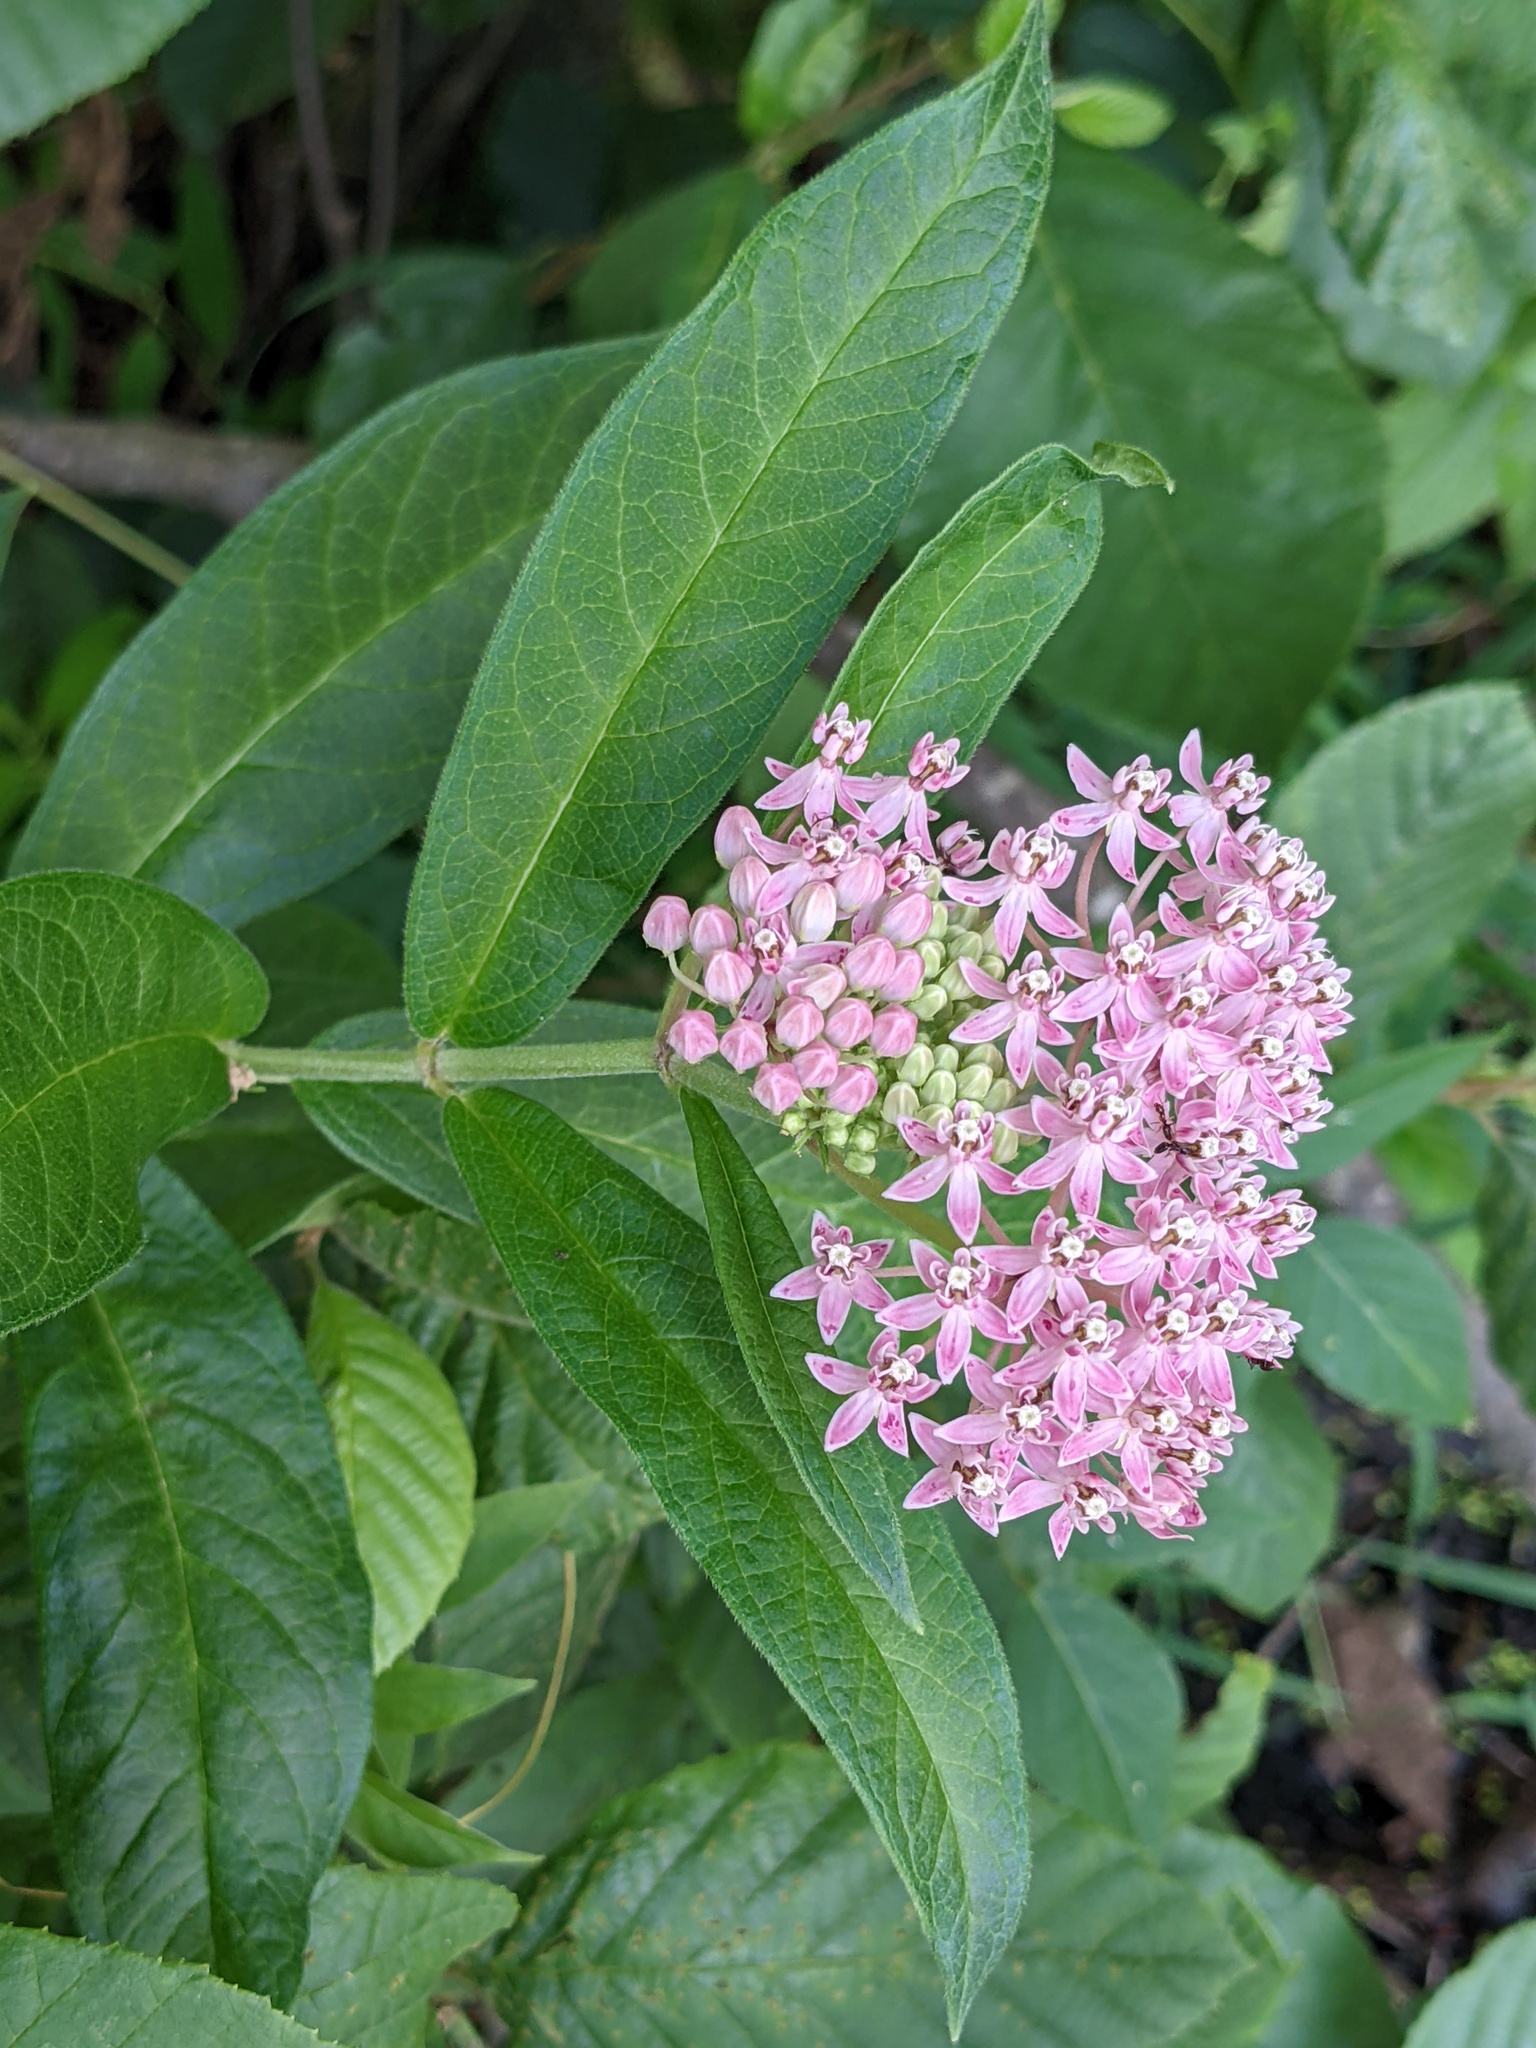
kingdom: Plantae
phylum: Tracheophyta
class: Magnoliopsida
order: Gentianales
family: Apocynaceae
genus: Asclepias
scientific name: Asclepias incarnata
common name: Swamp milkweed
